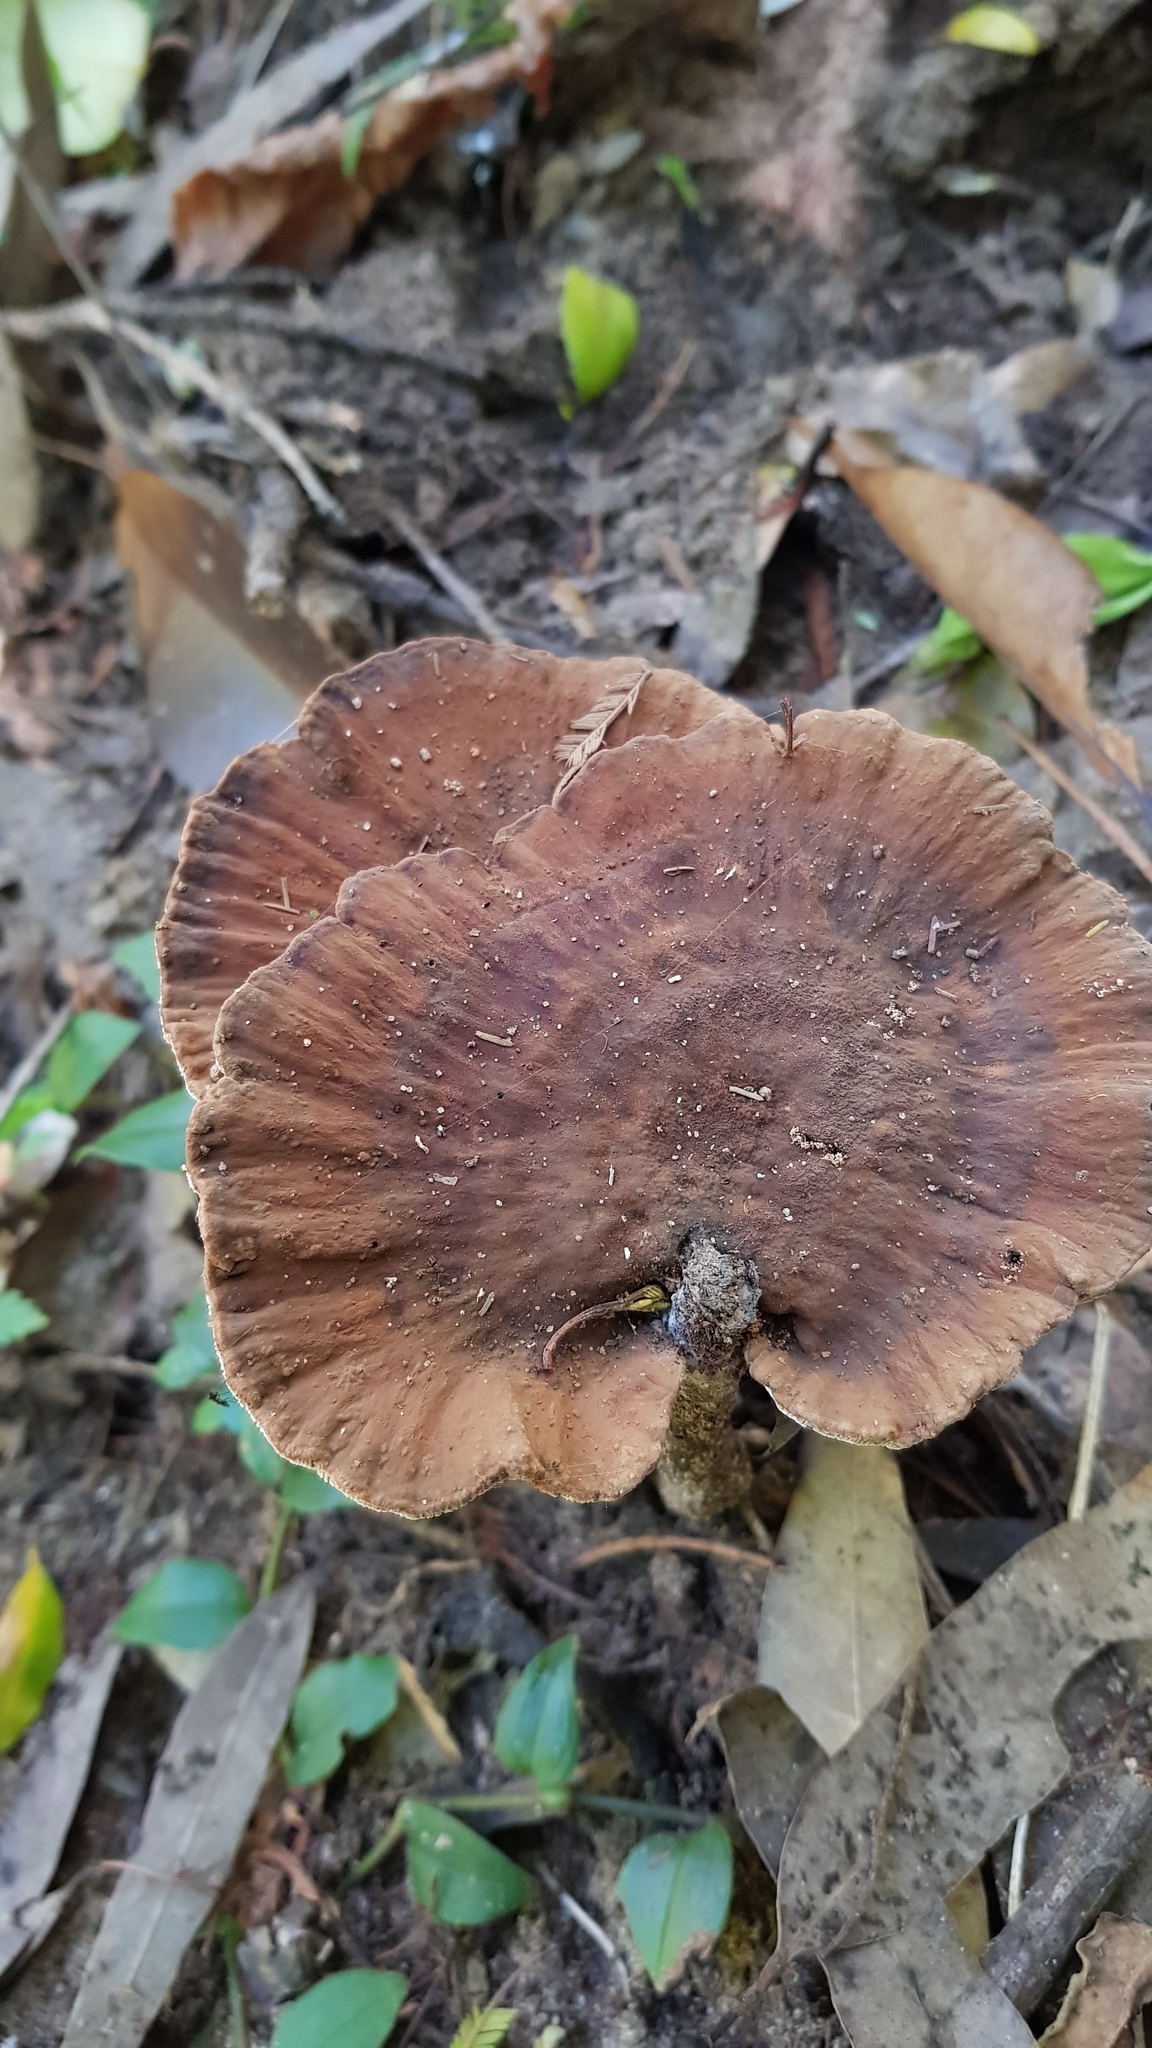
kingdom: Fungi
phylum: Basidiomycota
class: Agaricomycetes
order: Polyporales
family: Ganodermataceae
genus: Sanguinoderma
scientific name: Sanguinoderma rude
